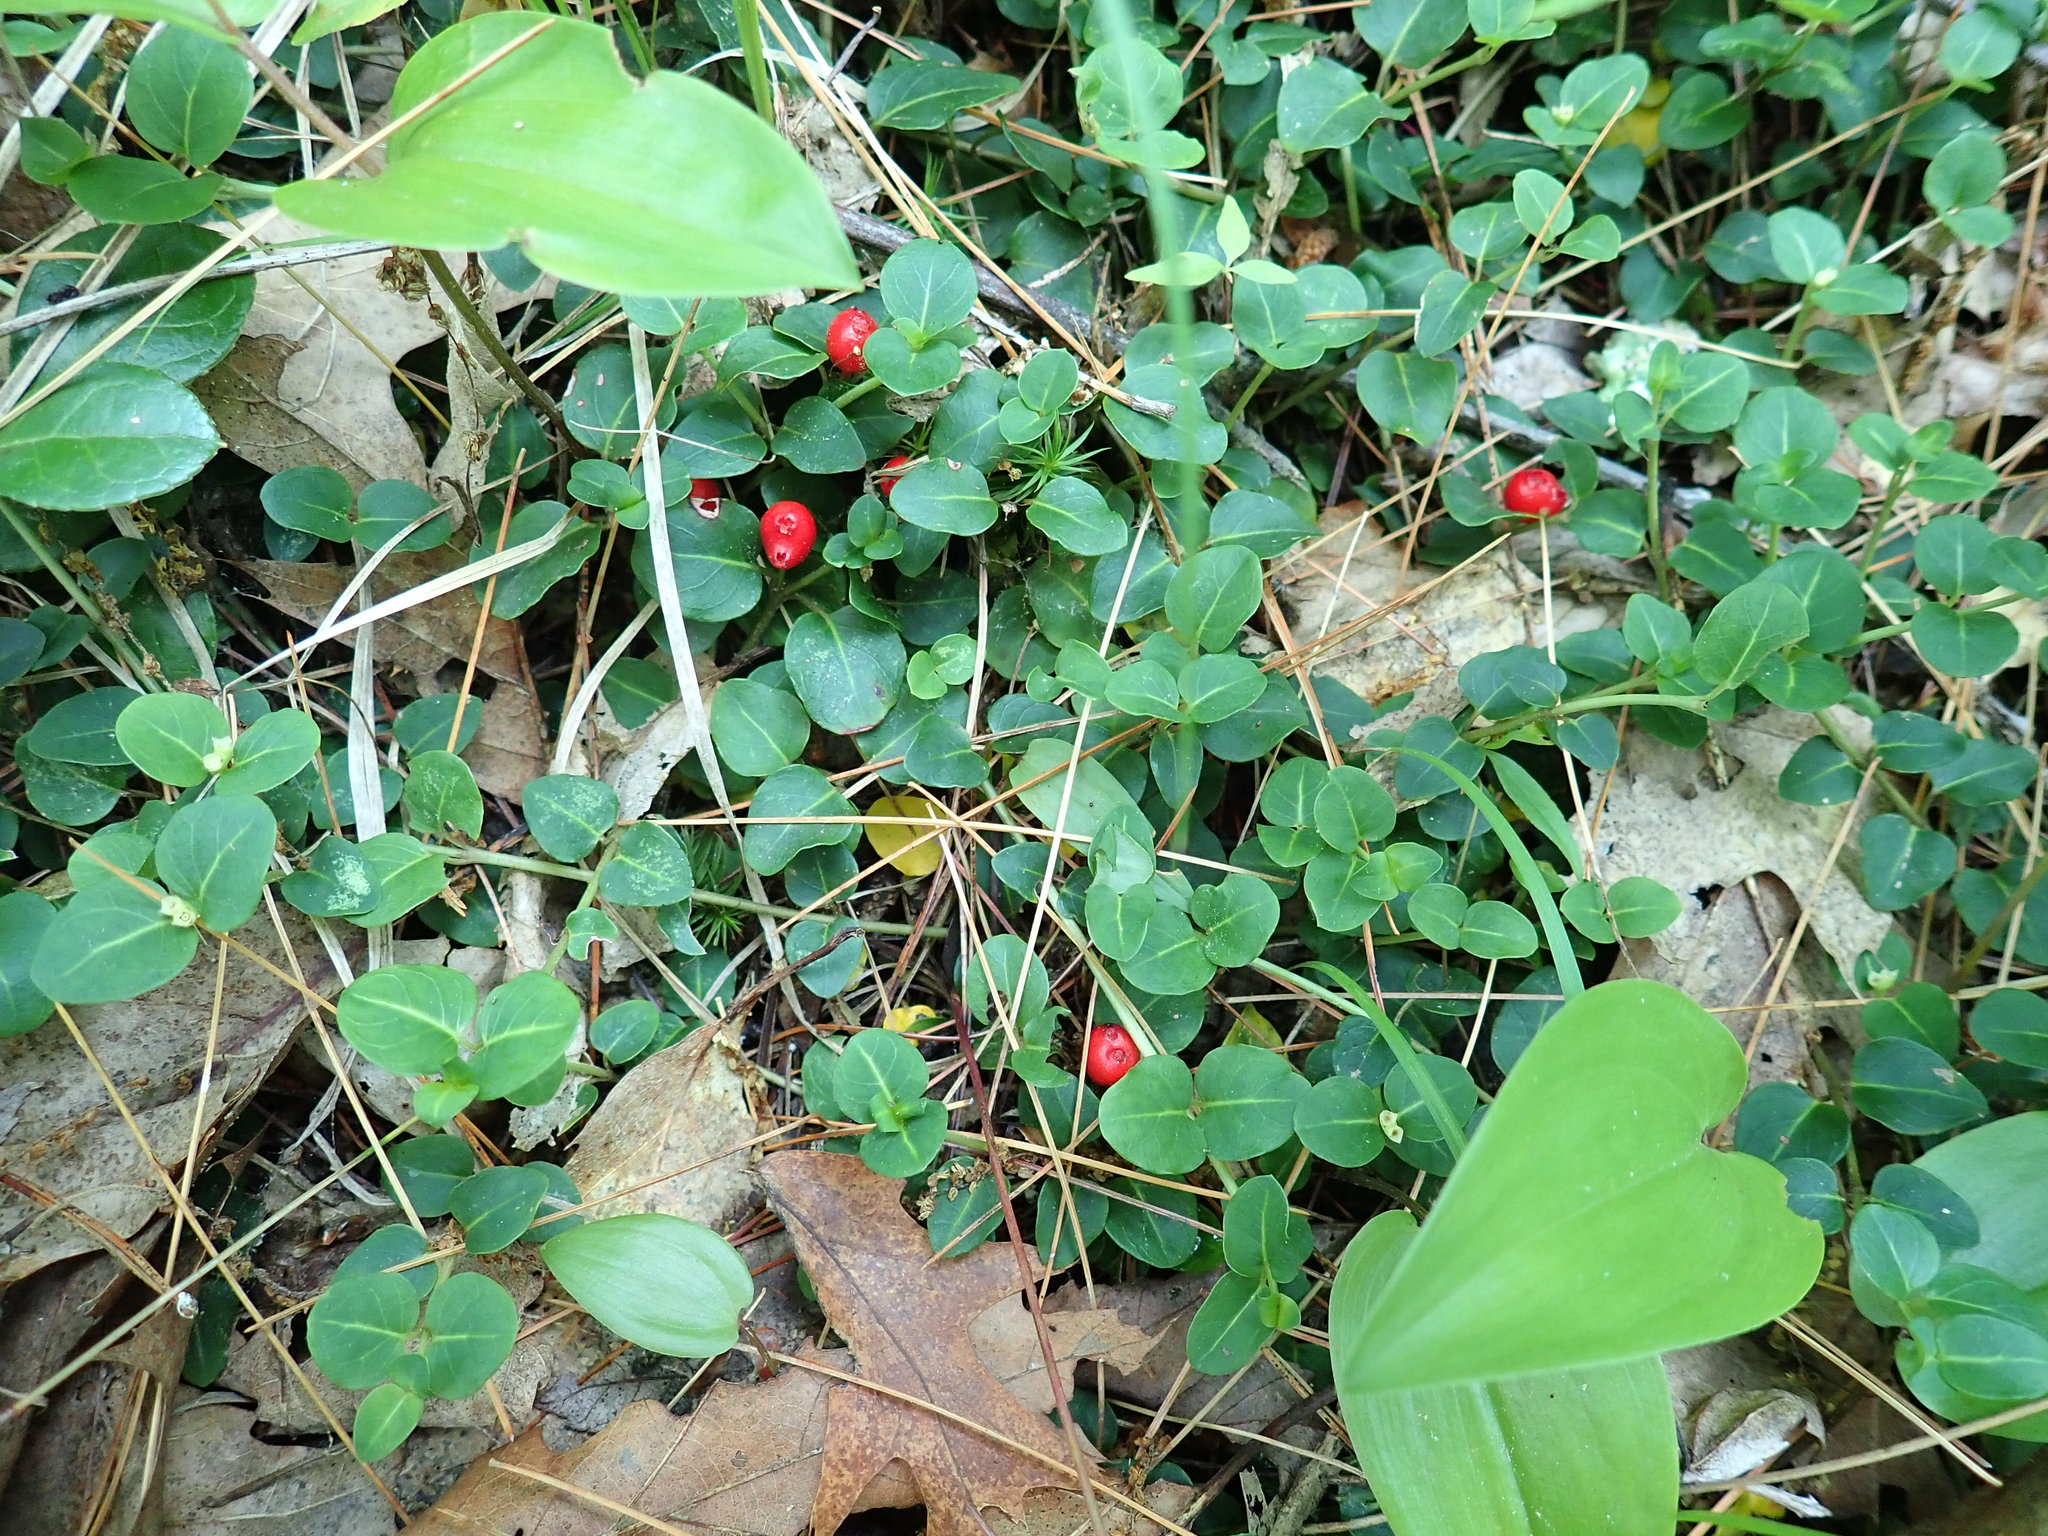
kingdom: Plantae
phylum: Tracheophyta
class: Magnoliopsida
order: Gentianales
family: Rubiaceae
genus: Mitchella
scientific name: Mitchella repens
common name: Partridge-berry
